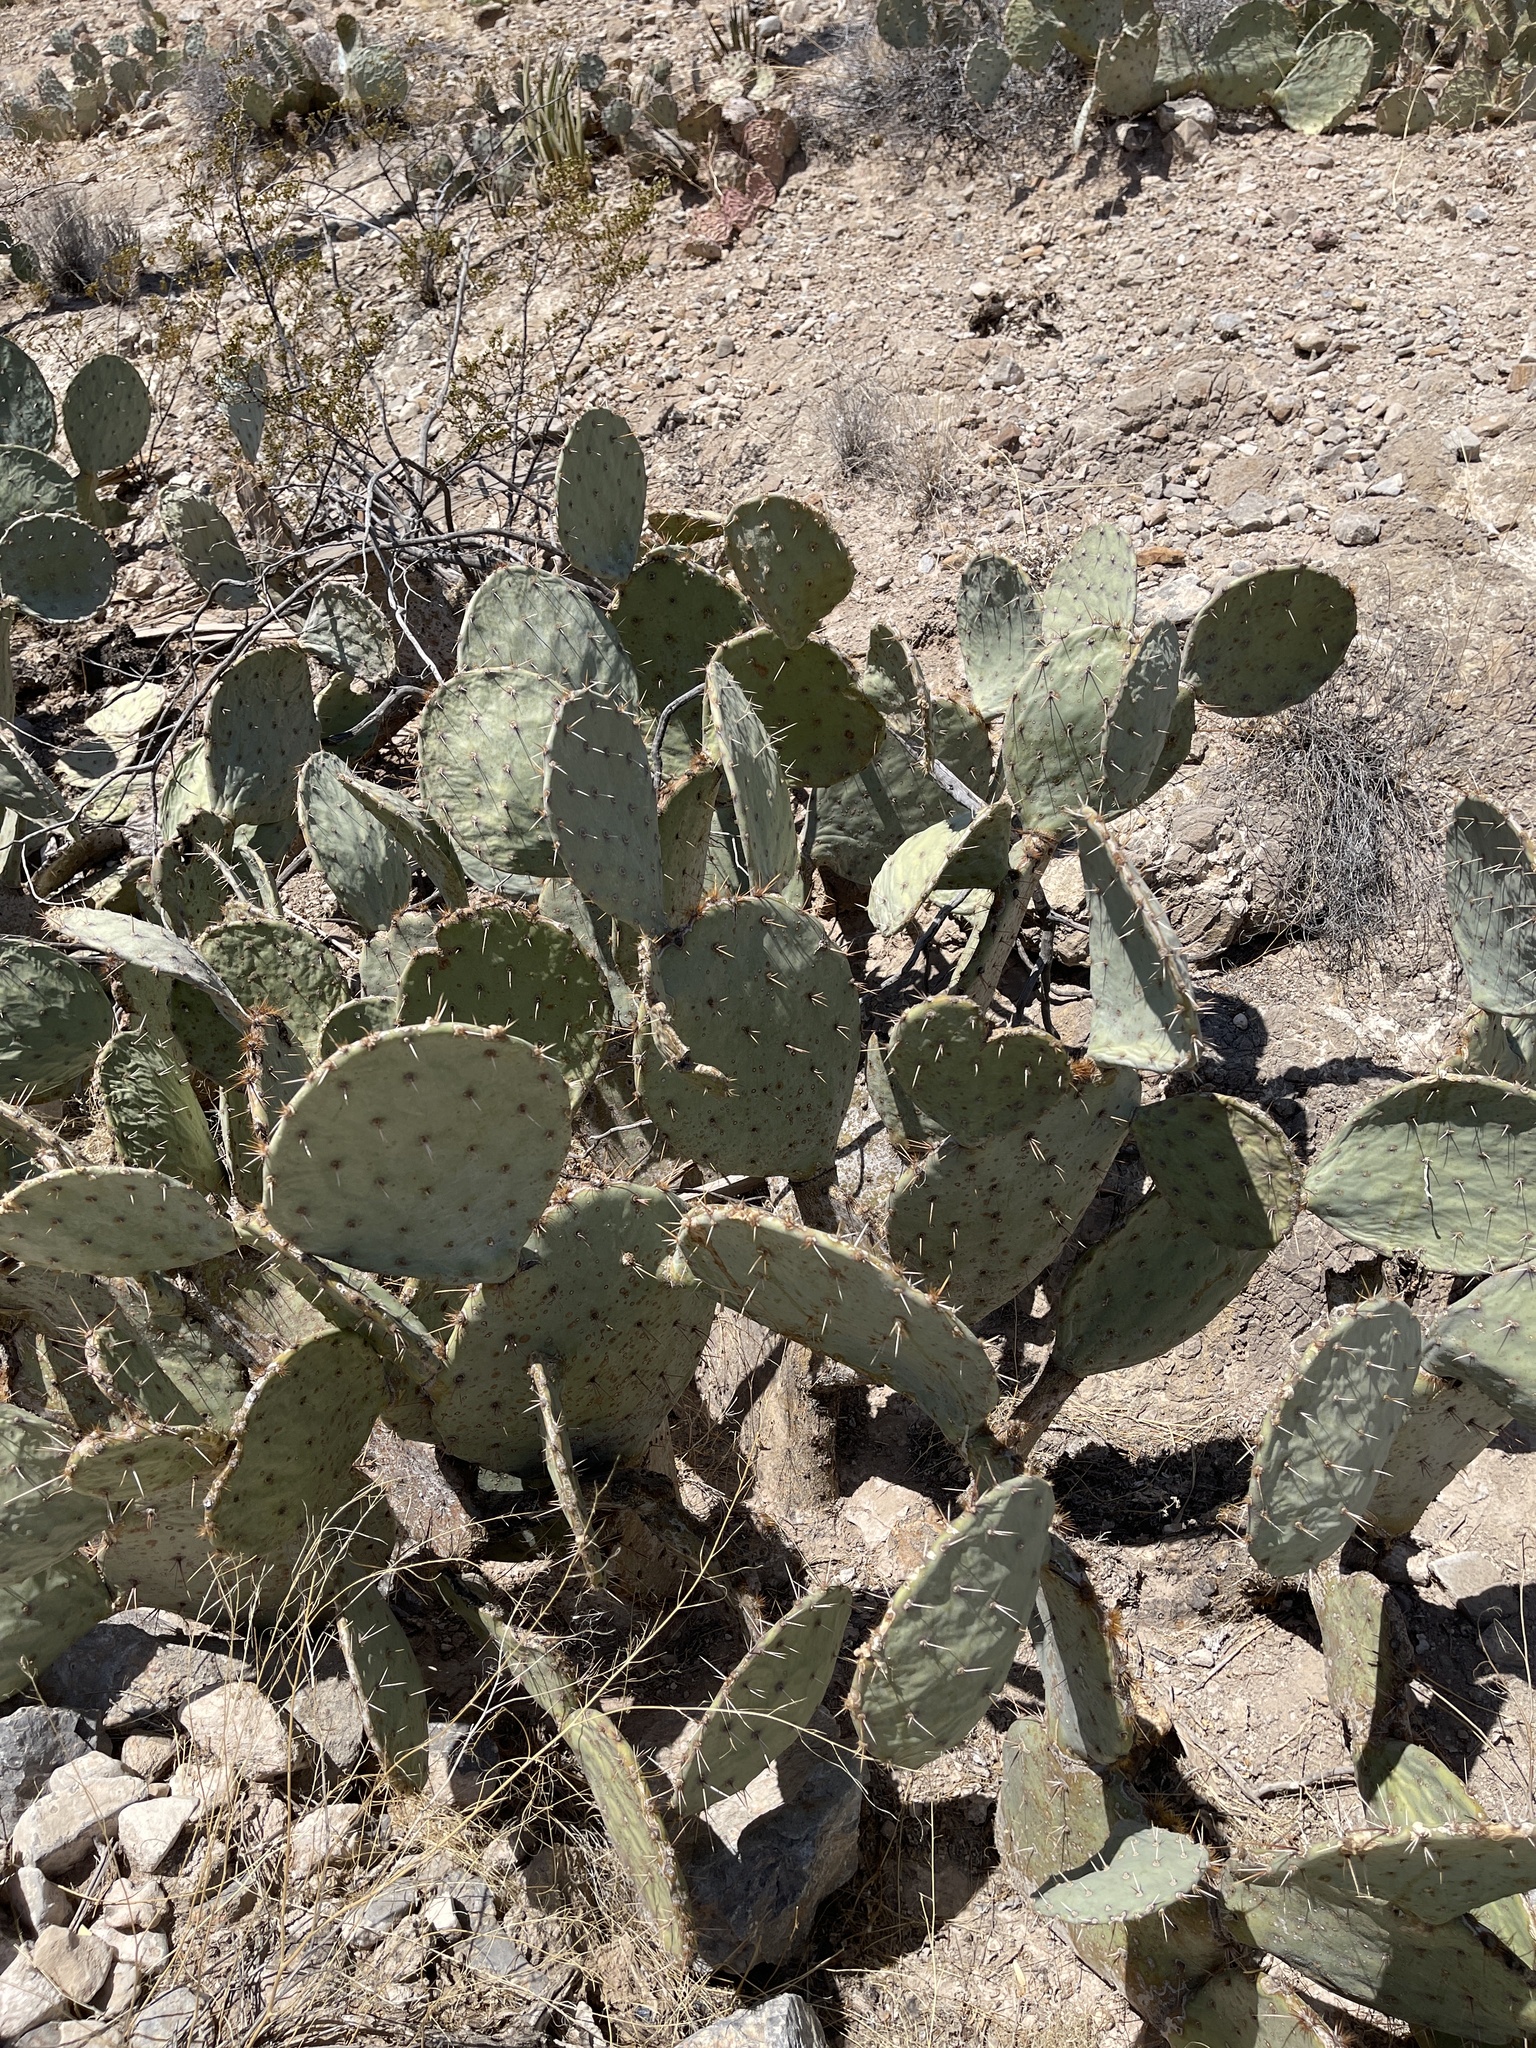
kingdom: Plantae
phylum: Tracheophyta
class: Magnoliopsida
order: Caryophyllales
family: Cactaceae
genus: Opuntia
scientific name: Opuntia engelmannii
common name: Cactus-apple
